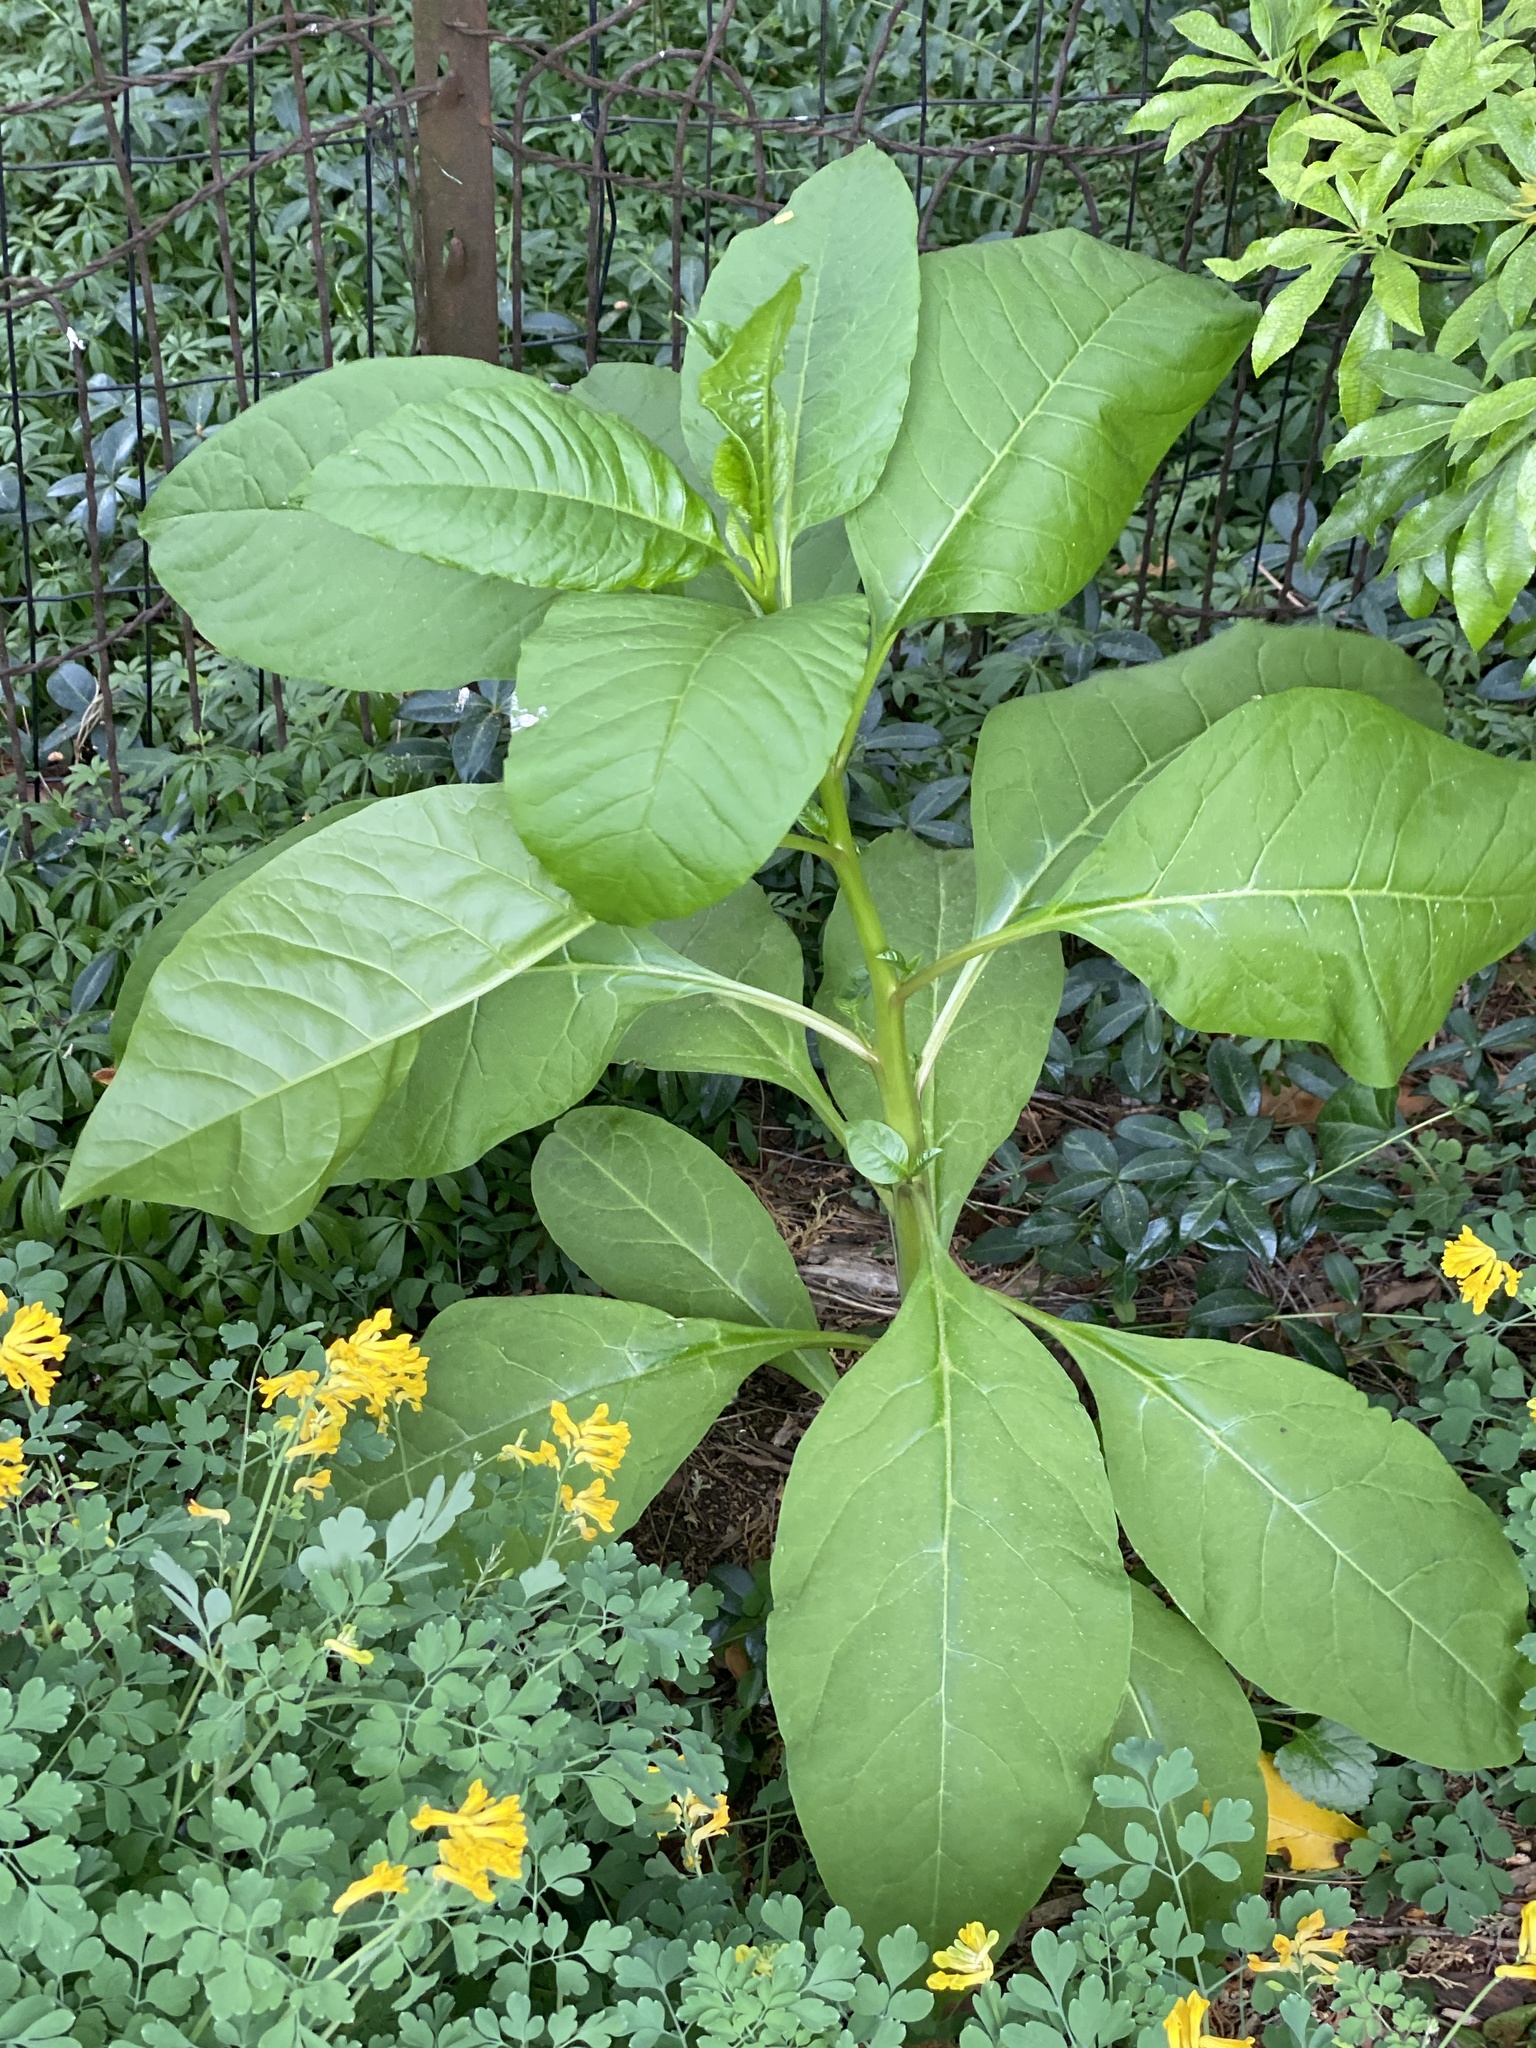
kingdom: Plantae
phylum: Tracheophyta
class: Magnoliopsida
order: Caryophyllales
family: Phytolaccaceae
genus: Phytolacca
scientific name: Phytolacca americana
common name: American pokeweed
